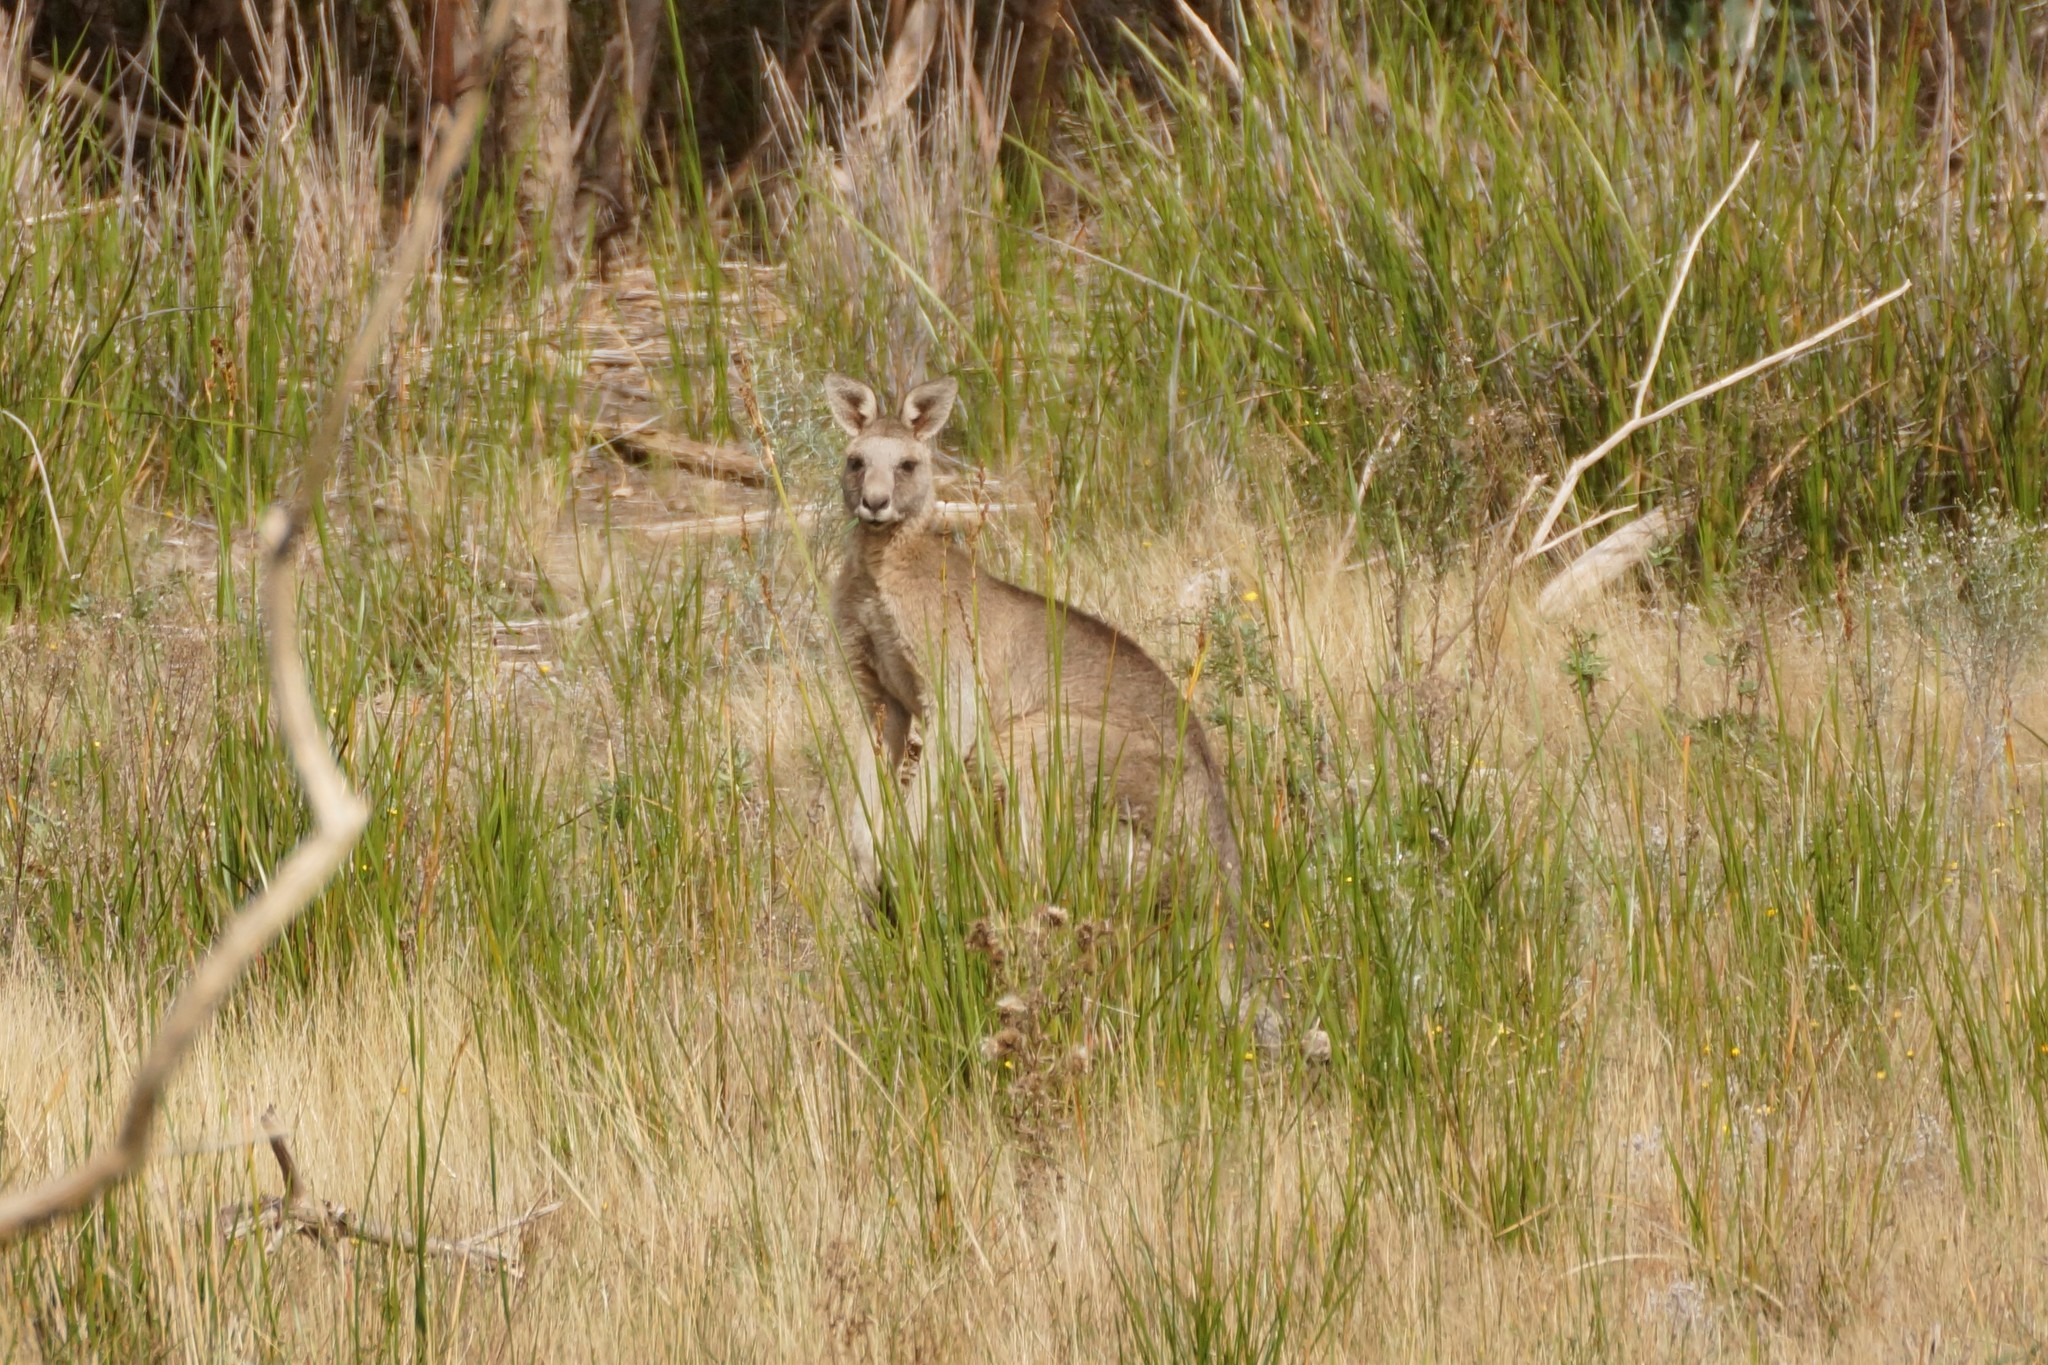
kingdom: Animalia
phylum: Chordata
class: Mammalia
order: Diprotodontia
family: Macropodidae
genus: Macropus
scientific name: Macropus giganteus
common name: Eastern grey kangaroo
